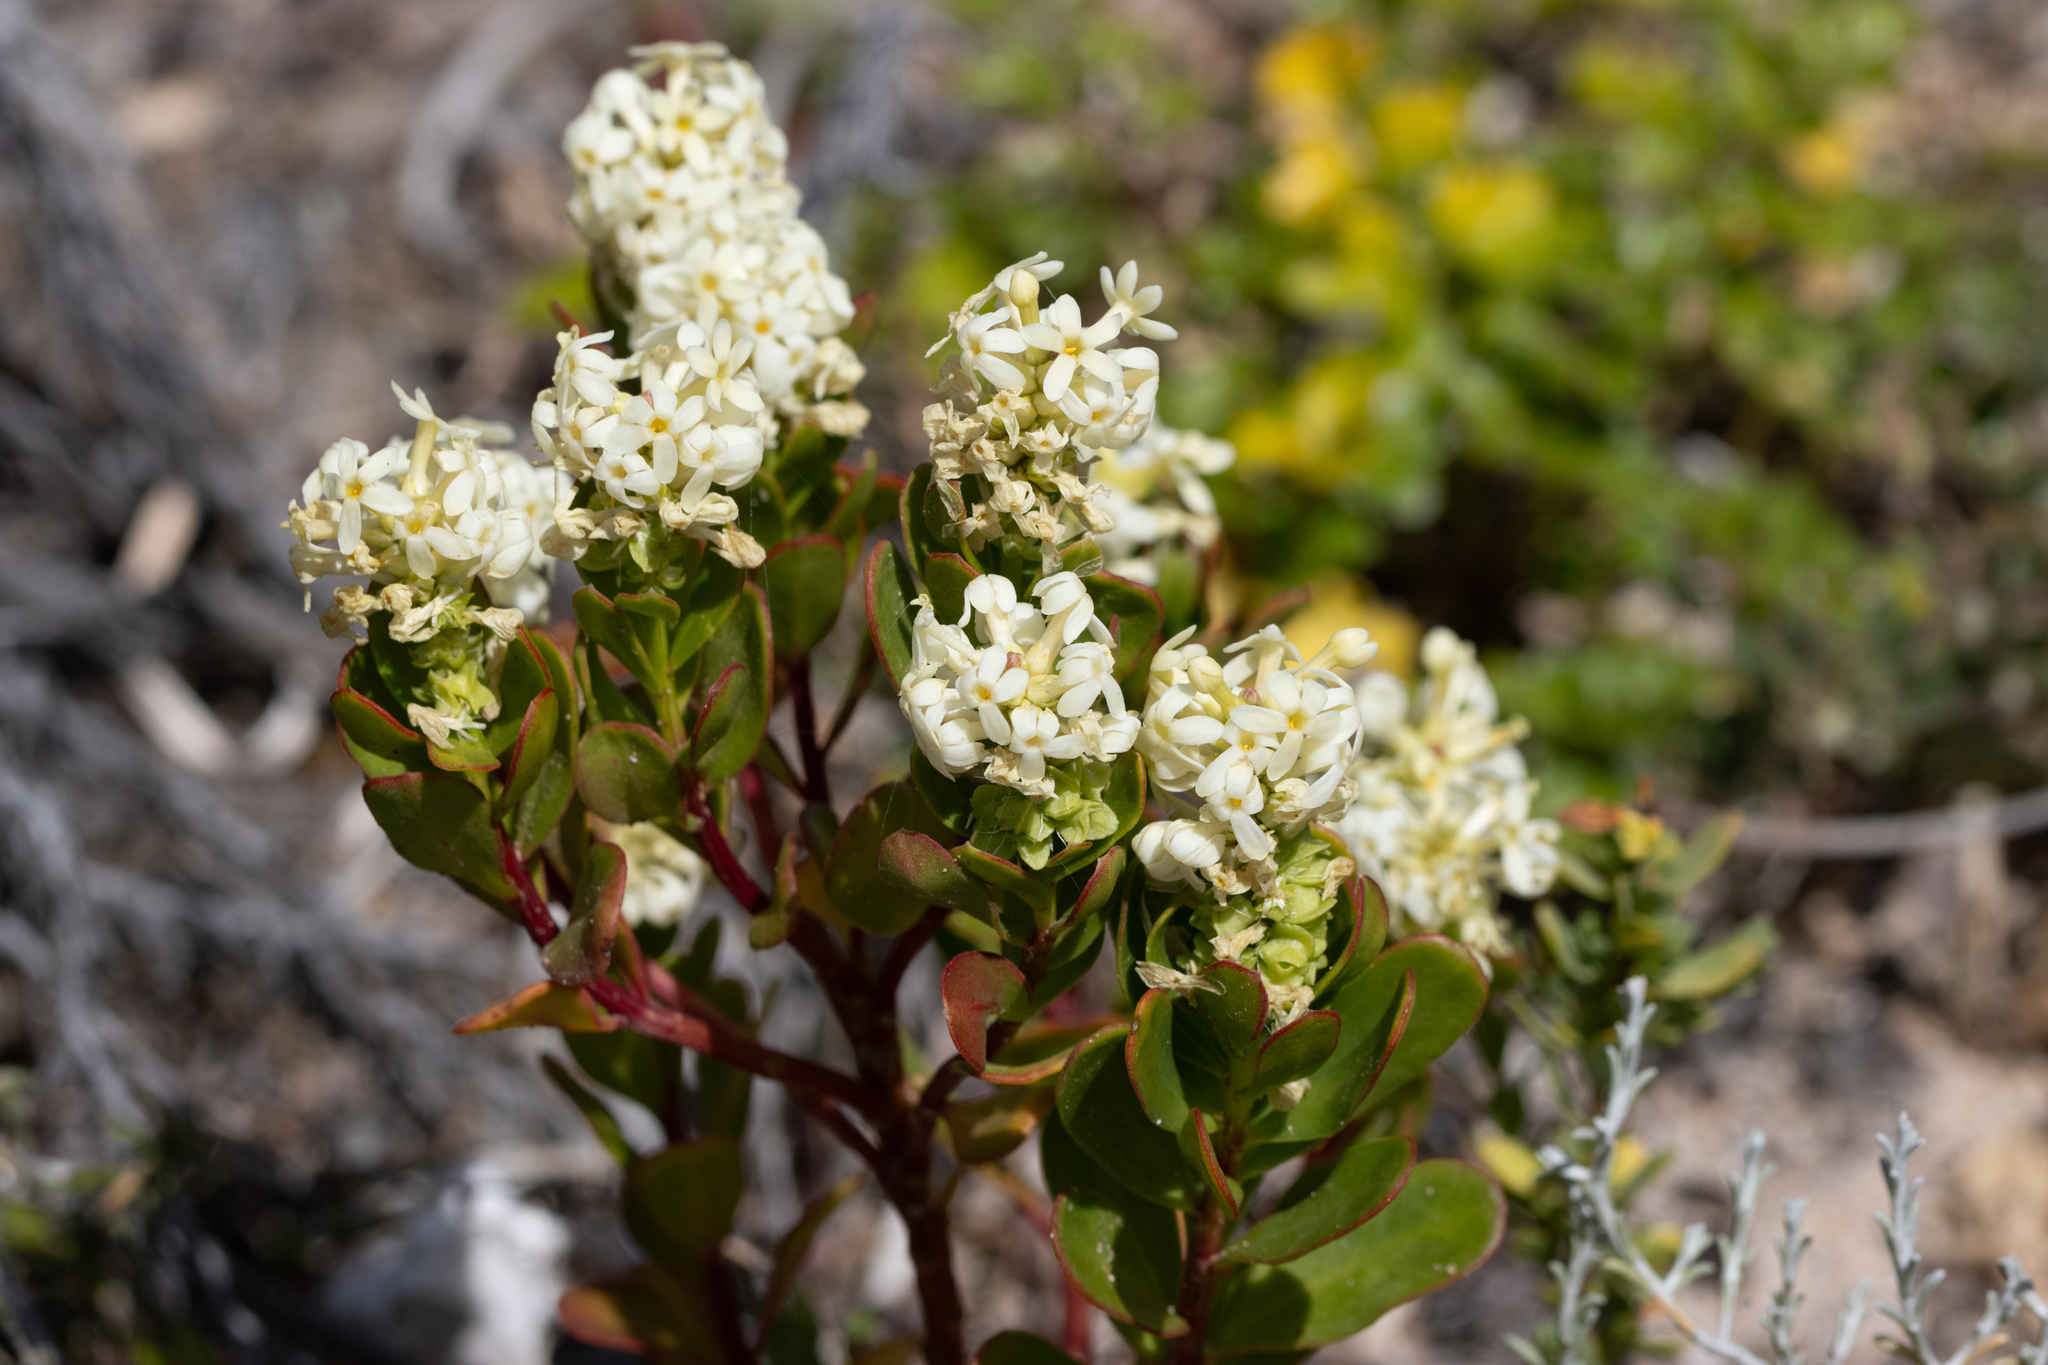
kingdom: Plantae
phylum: Tracheophyta
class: Magnoliopsida
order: Celastrales
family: Celastraceae
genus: Stackhousia
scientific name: Stackhousia spathulata
